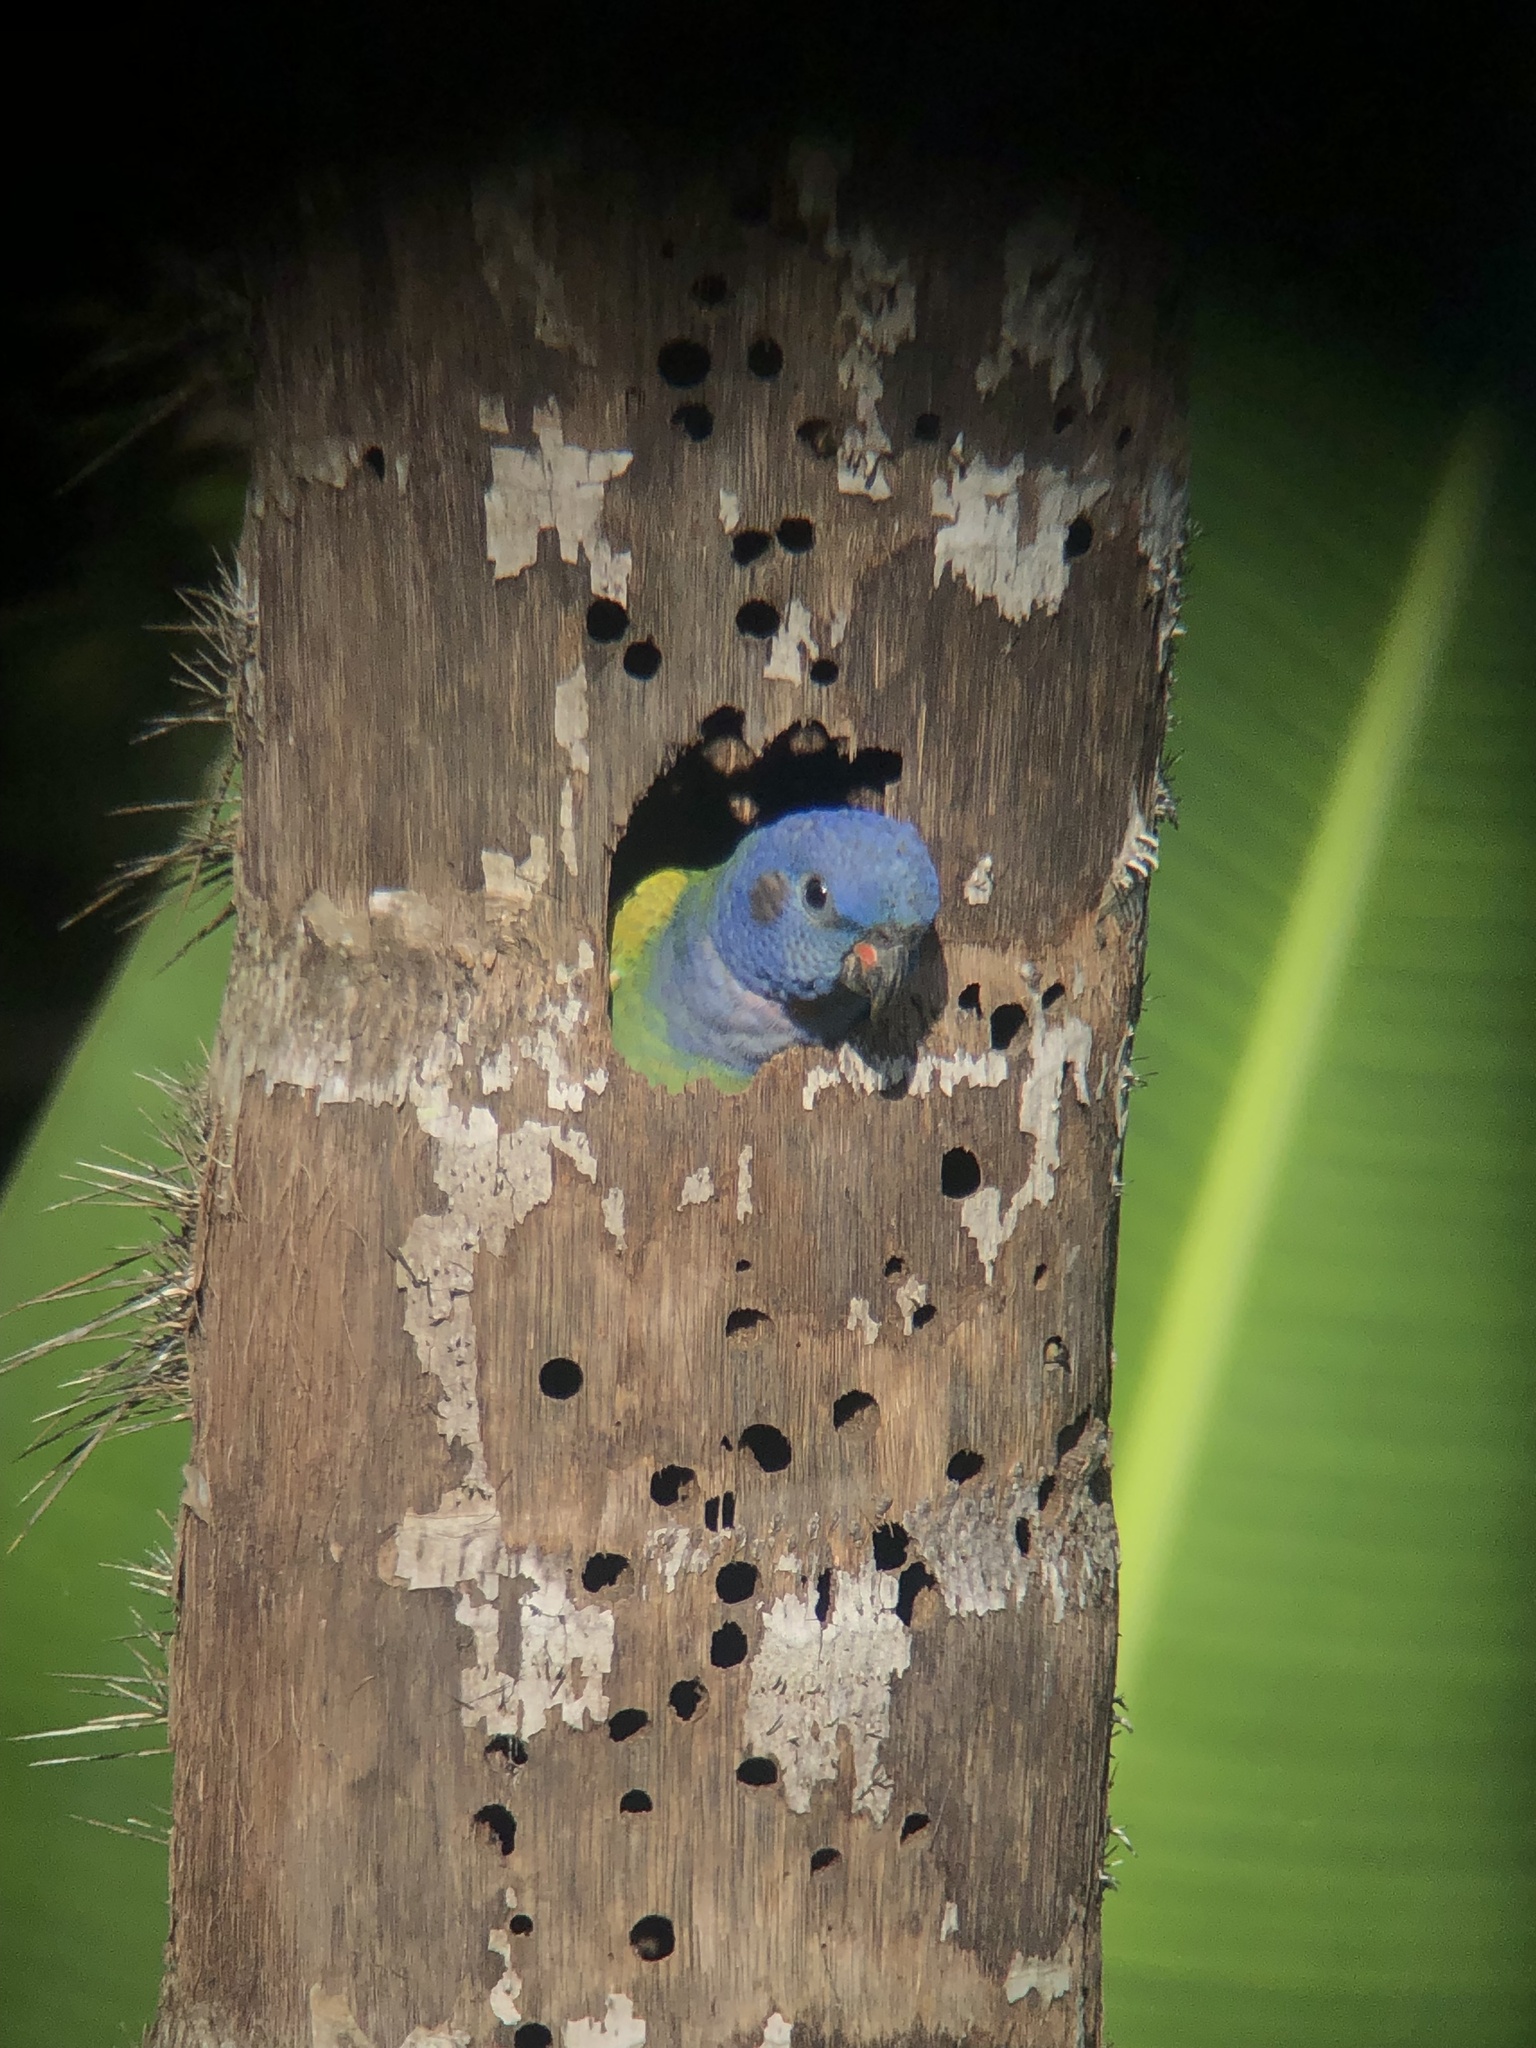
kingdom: Animalia
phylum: Chordata
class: Aves
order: Psittaciformes
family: Psittacidae
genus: Pionus
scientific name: Pionus menstruus
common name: Blue-headed parrot
